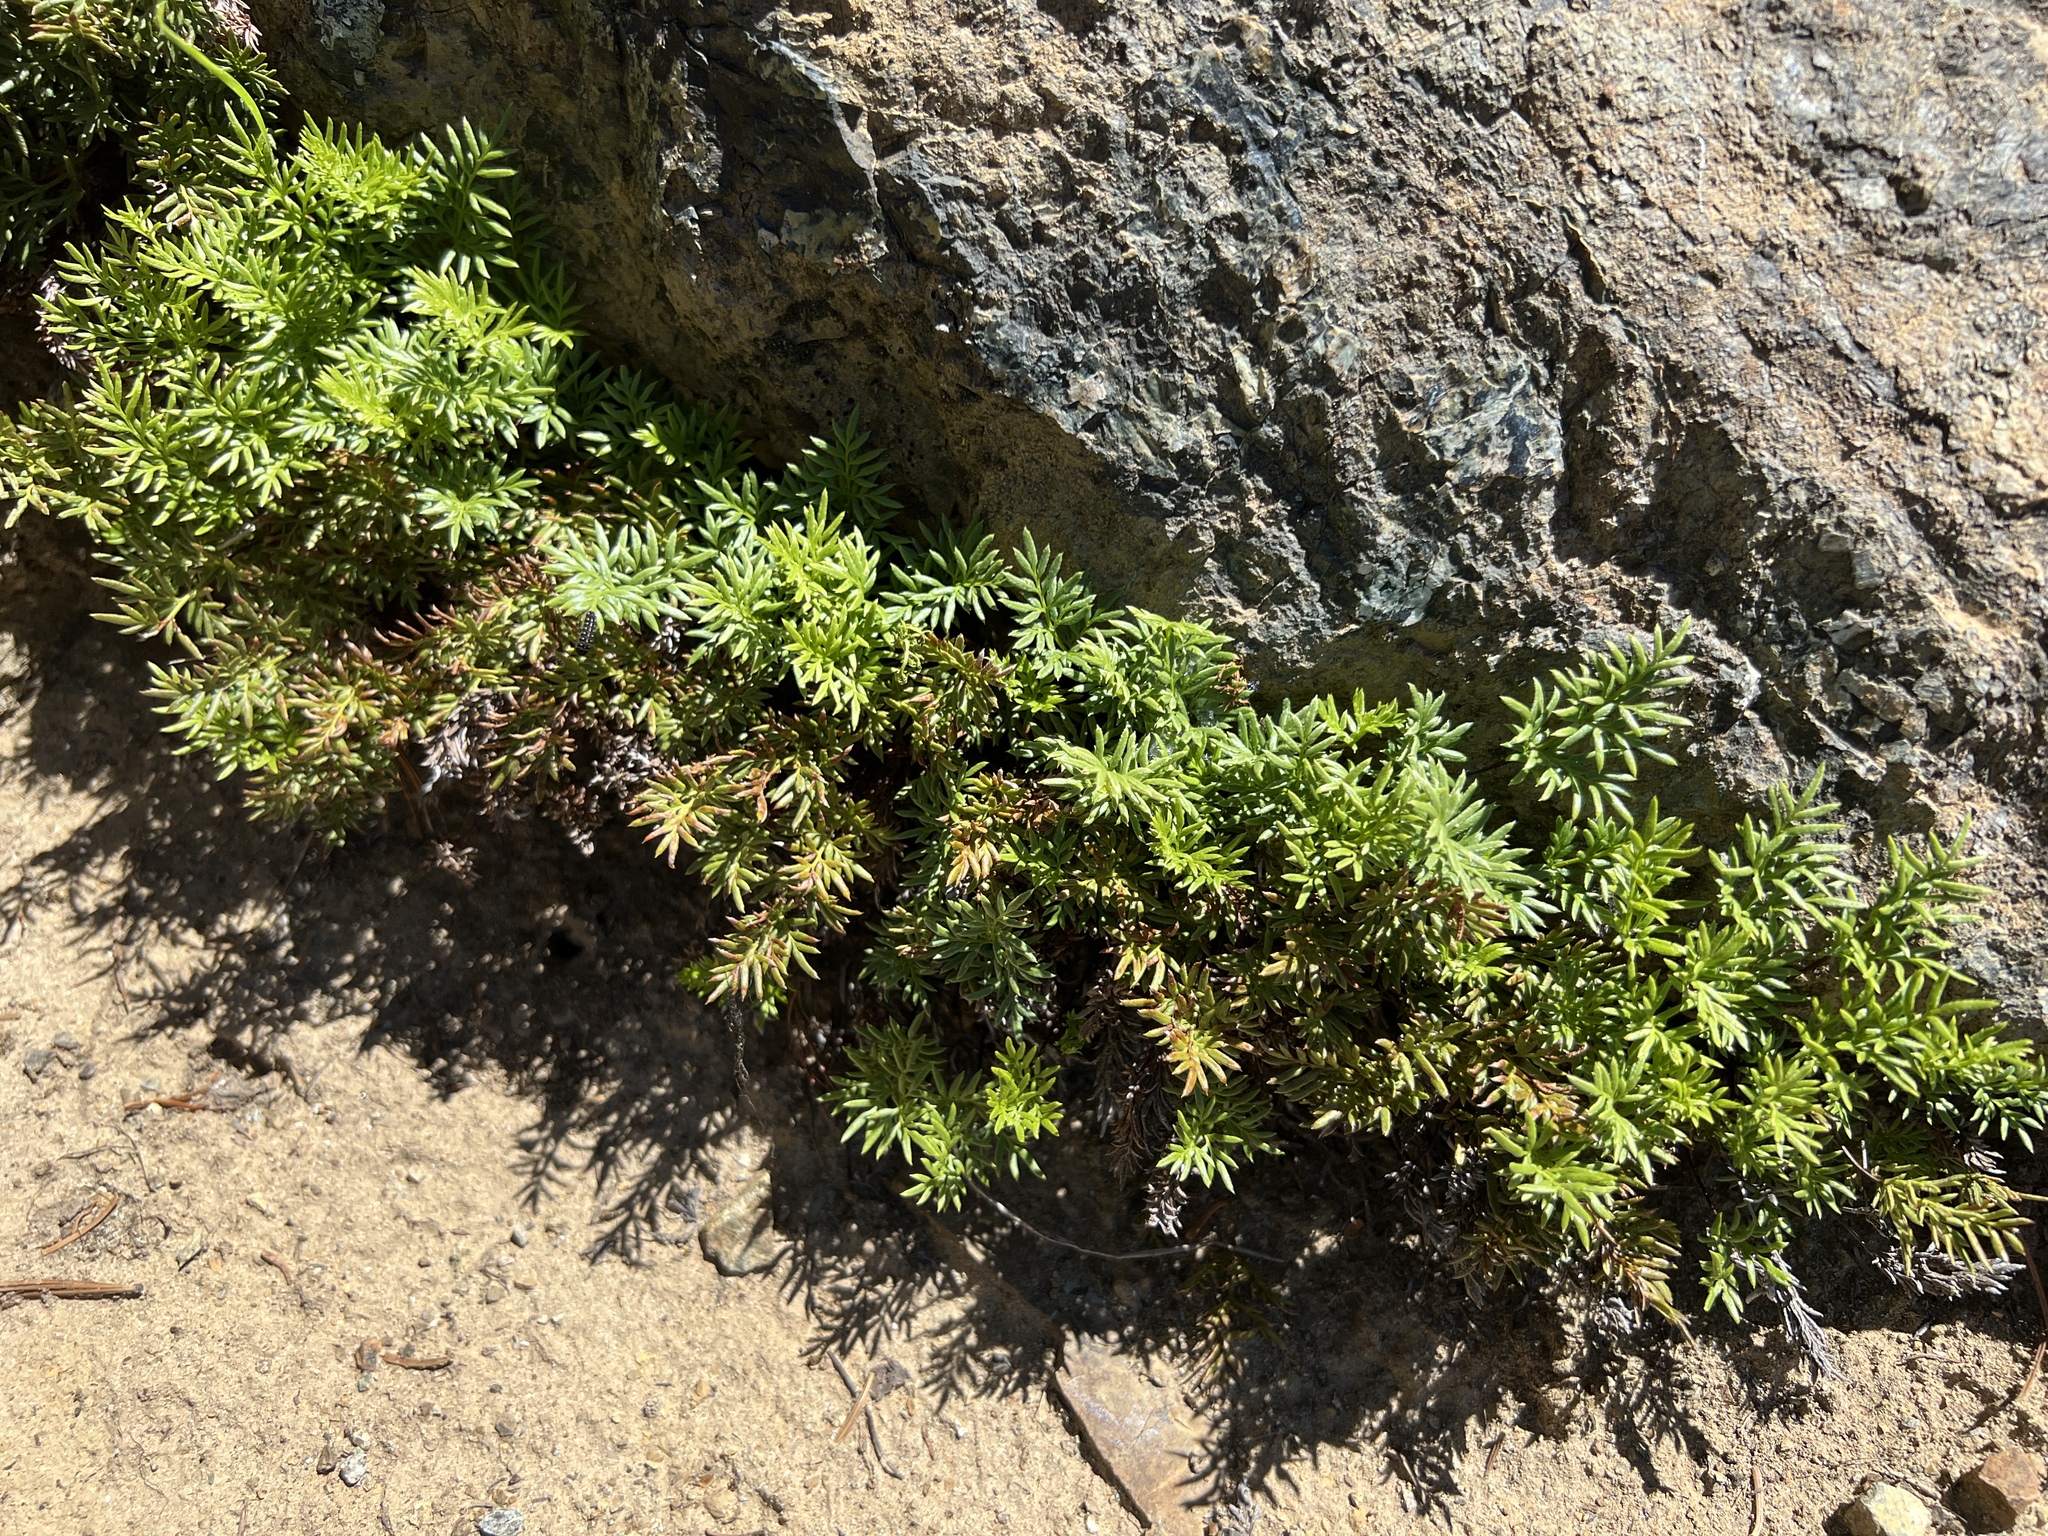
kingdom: Plantae
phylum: Tracheophyta
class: Polypodiopsida
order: Polypodiales
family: Pteridaceae
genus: Aspidotis
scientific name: Aspidotis densa
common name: Indian's dream
